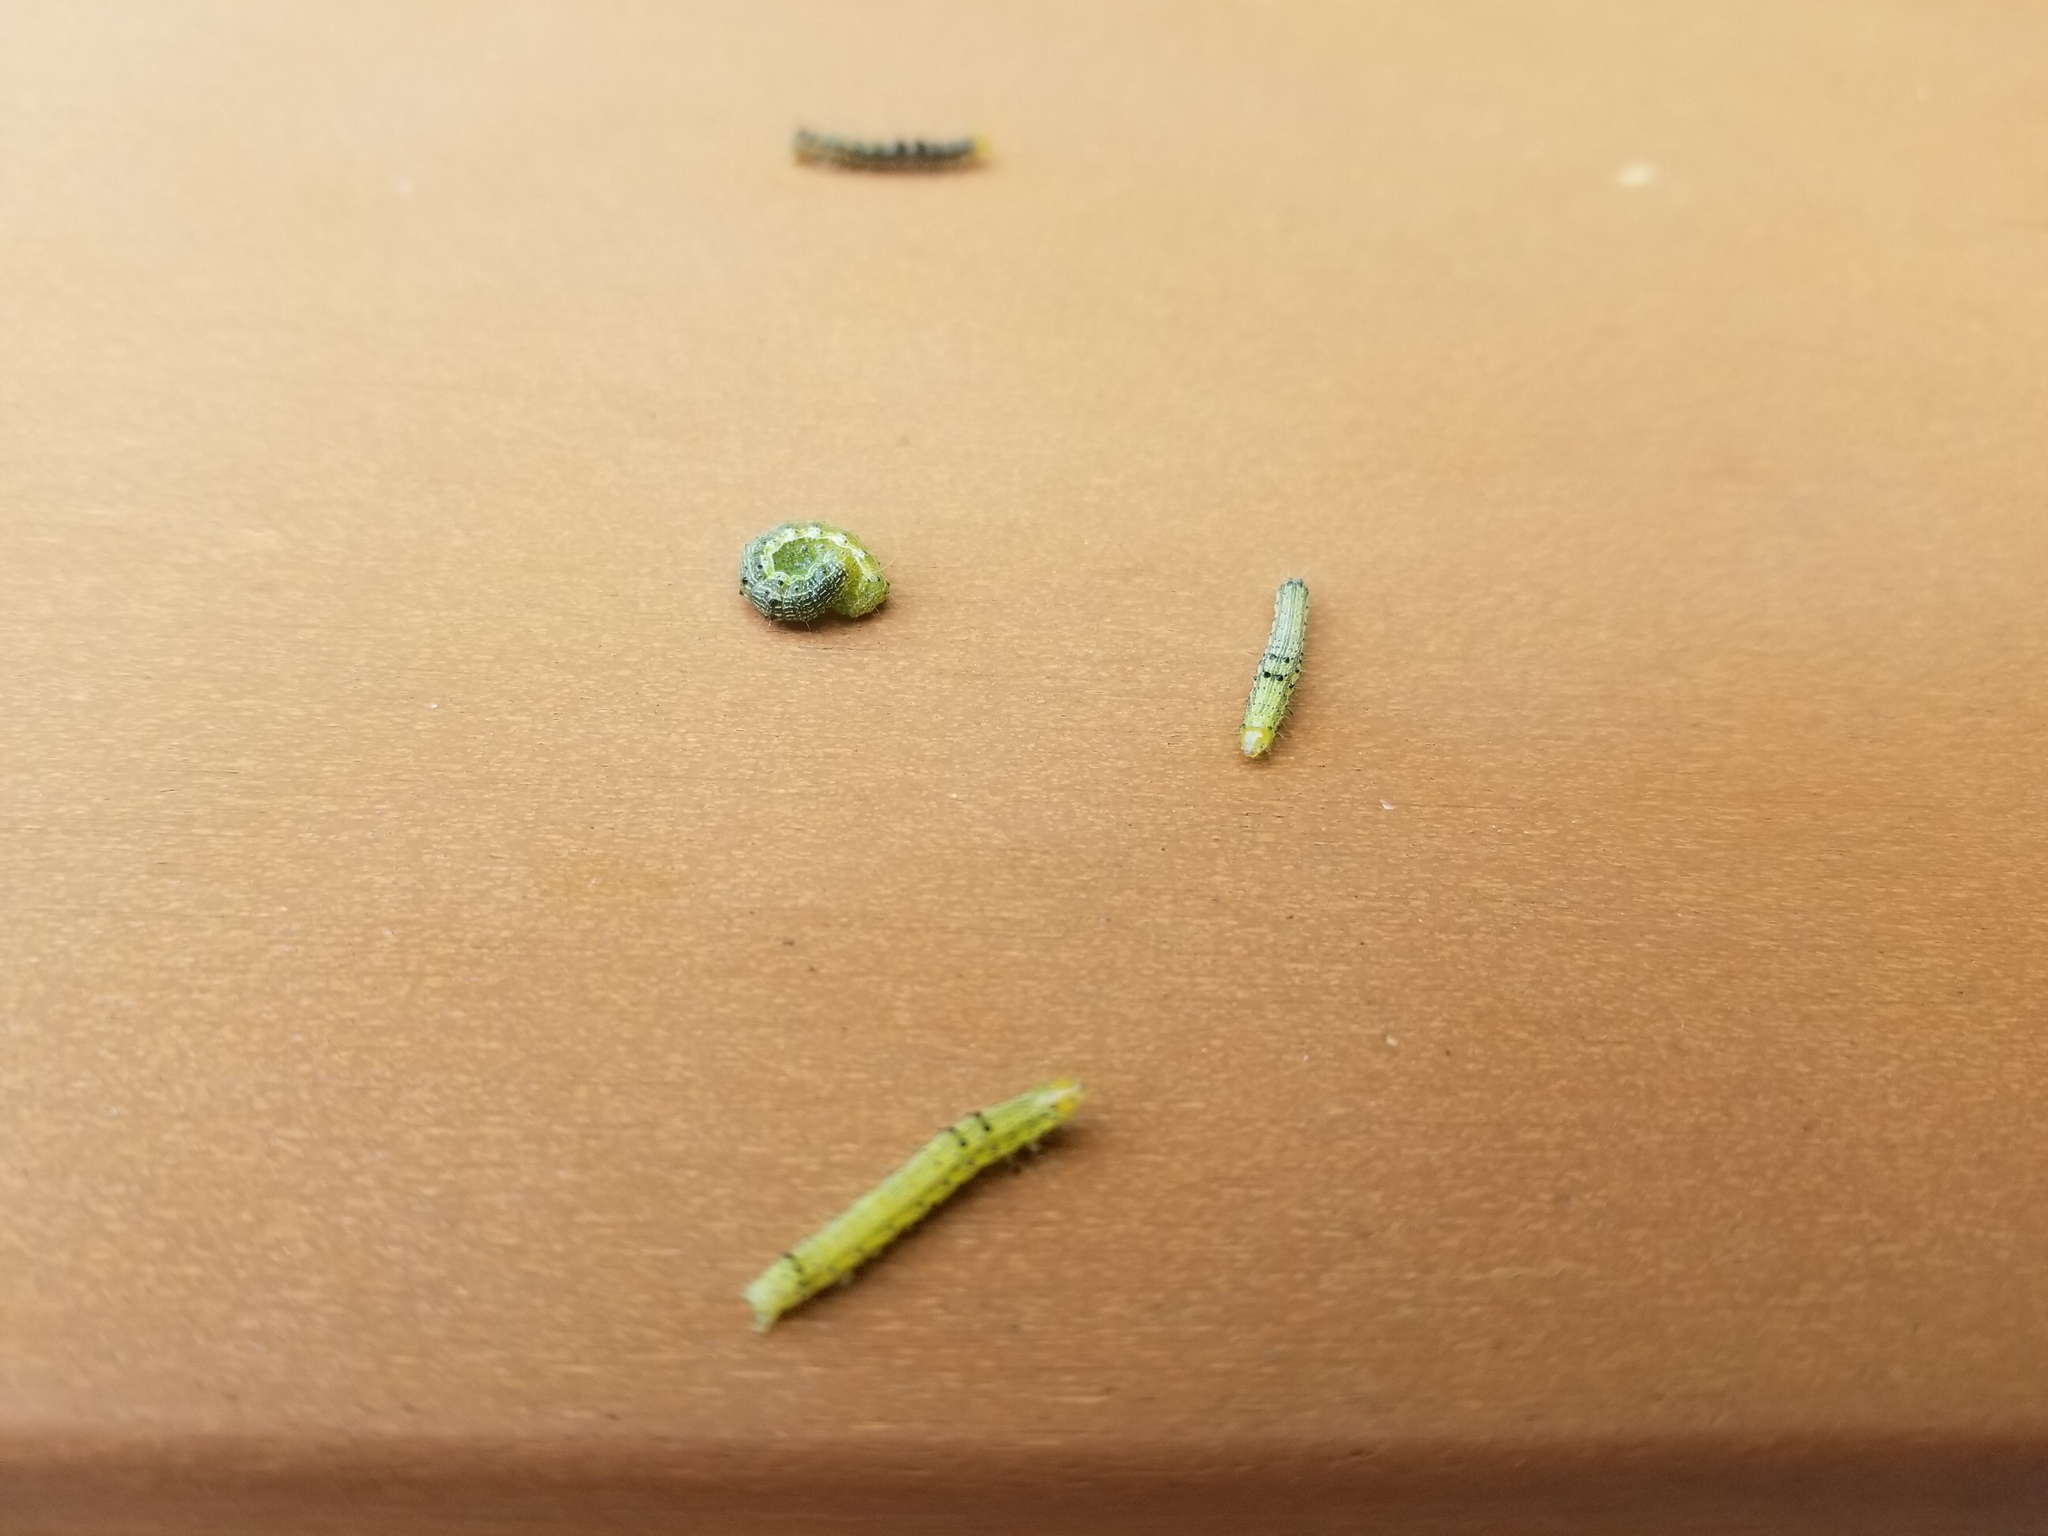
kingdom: Animalia
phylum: Arthropoda
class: Insecta
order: Lepidoptera
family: Noctuidae
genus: Chloridea
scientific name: Chloridea virescens
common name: Tobacco budworm
